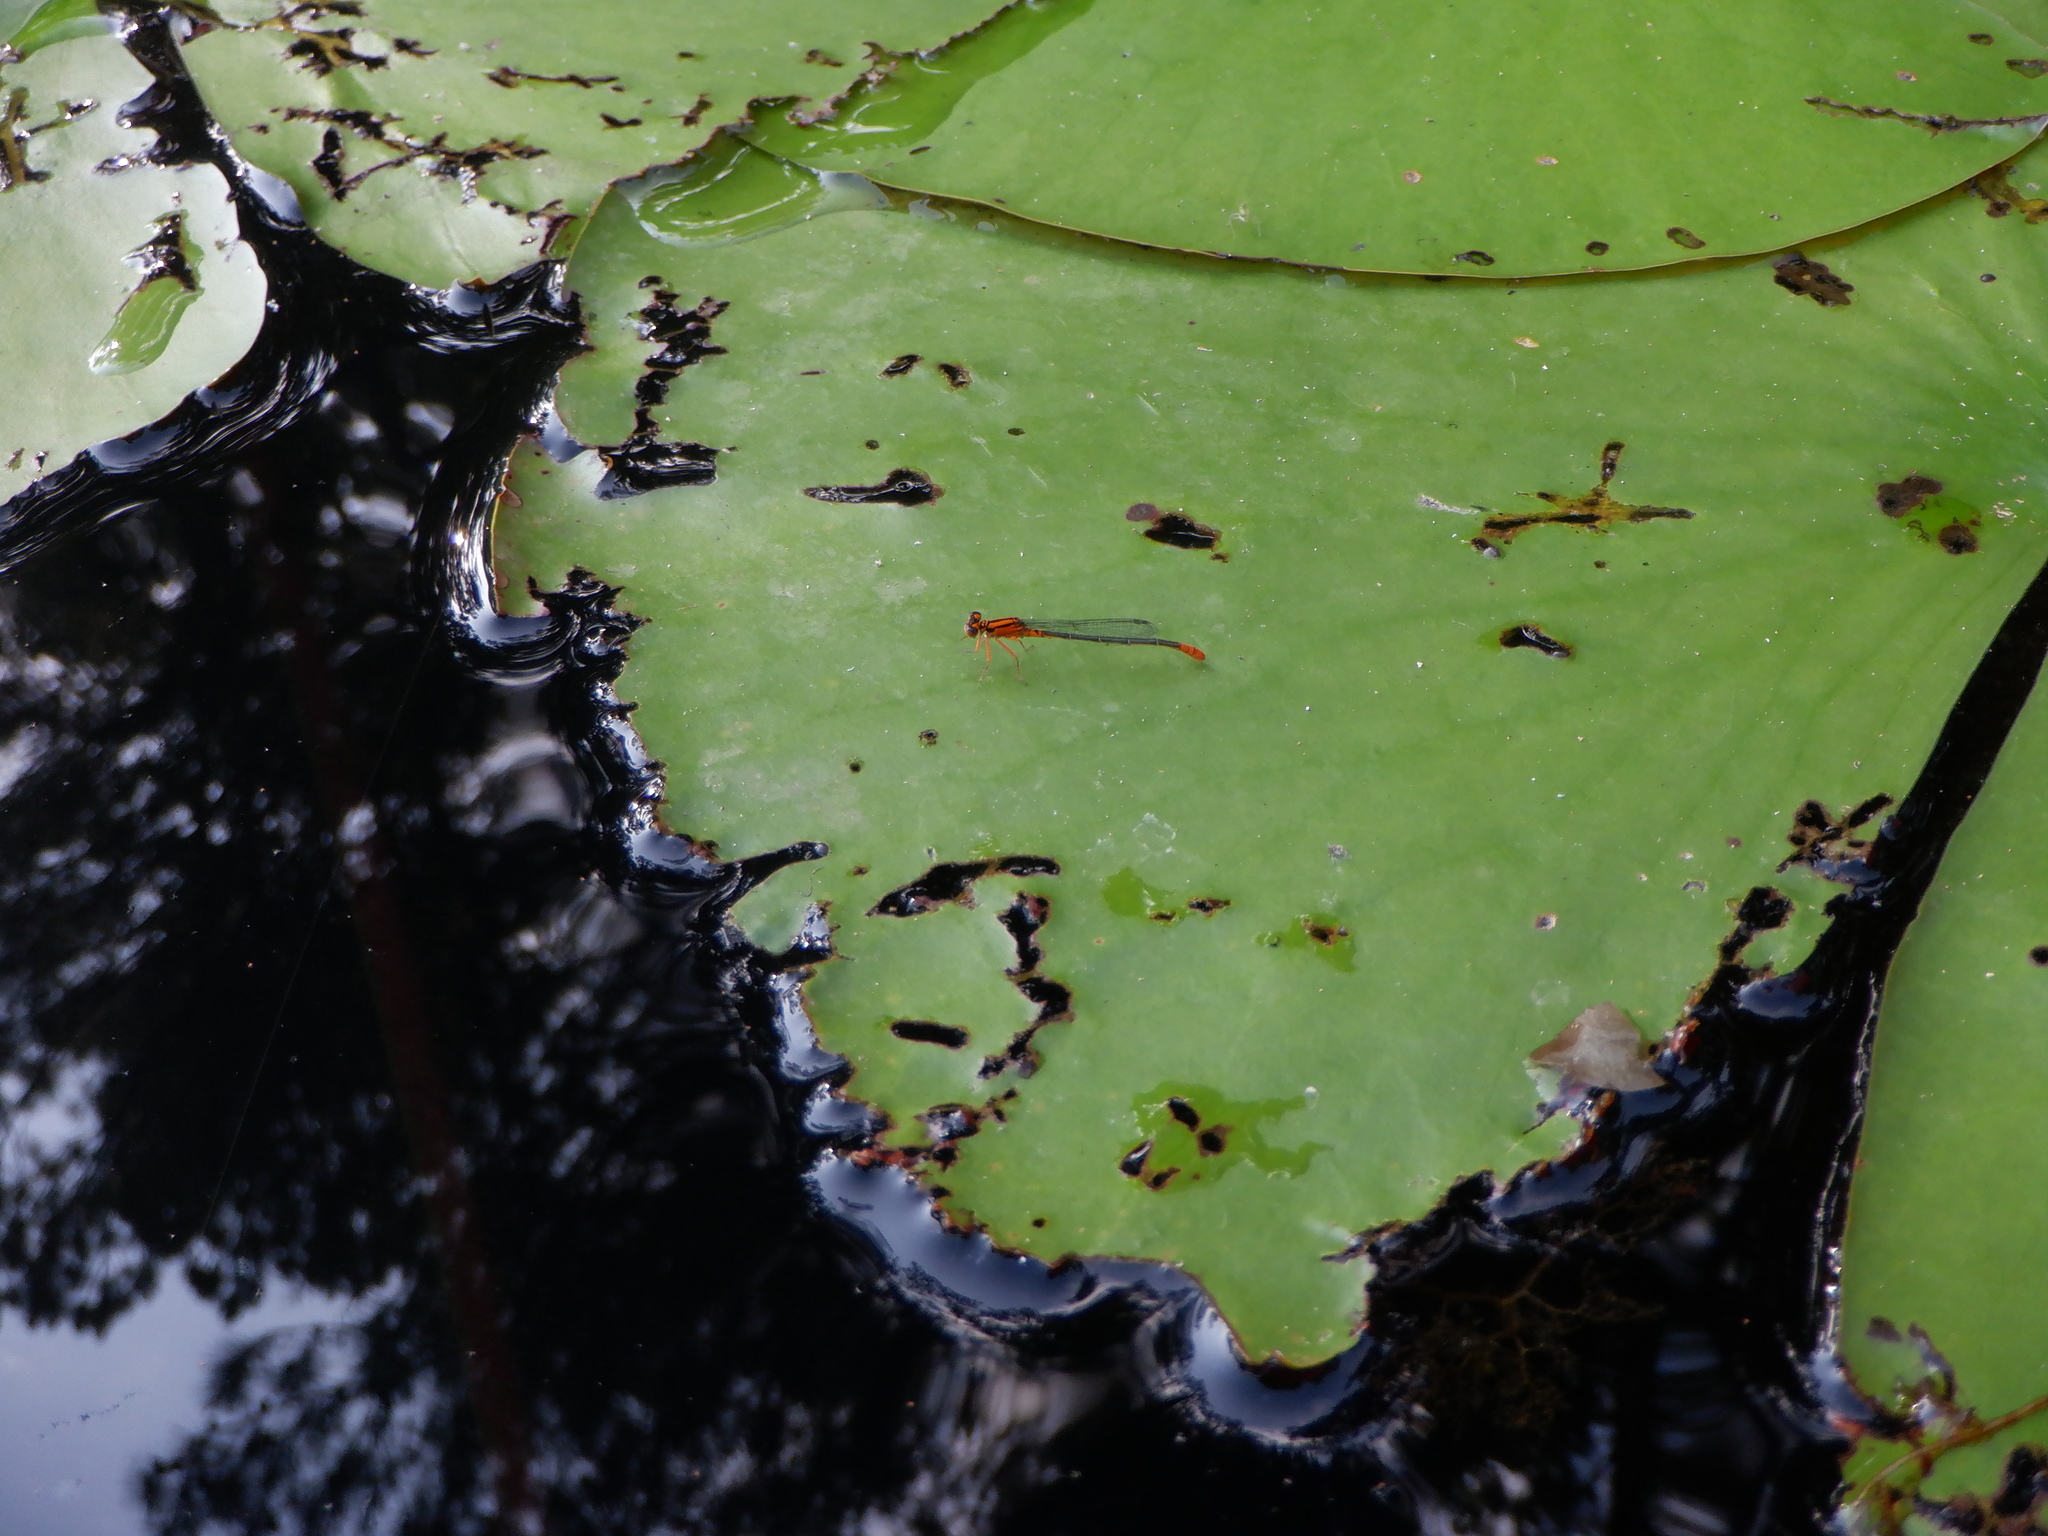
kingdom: Animalia
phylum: Arthropoda
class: Insecta
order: Odonata
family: Coenagrionidae
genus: Ischnura
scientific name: Ischnura kellicotti
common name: Lilypad forktail
